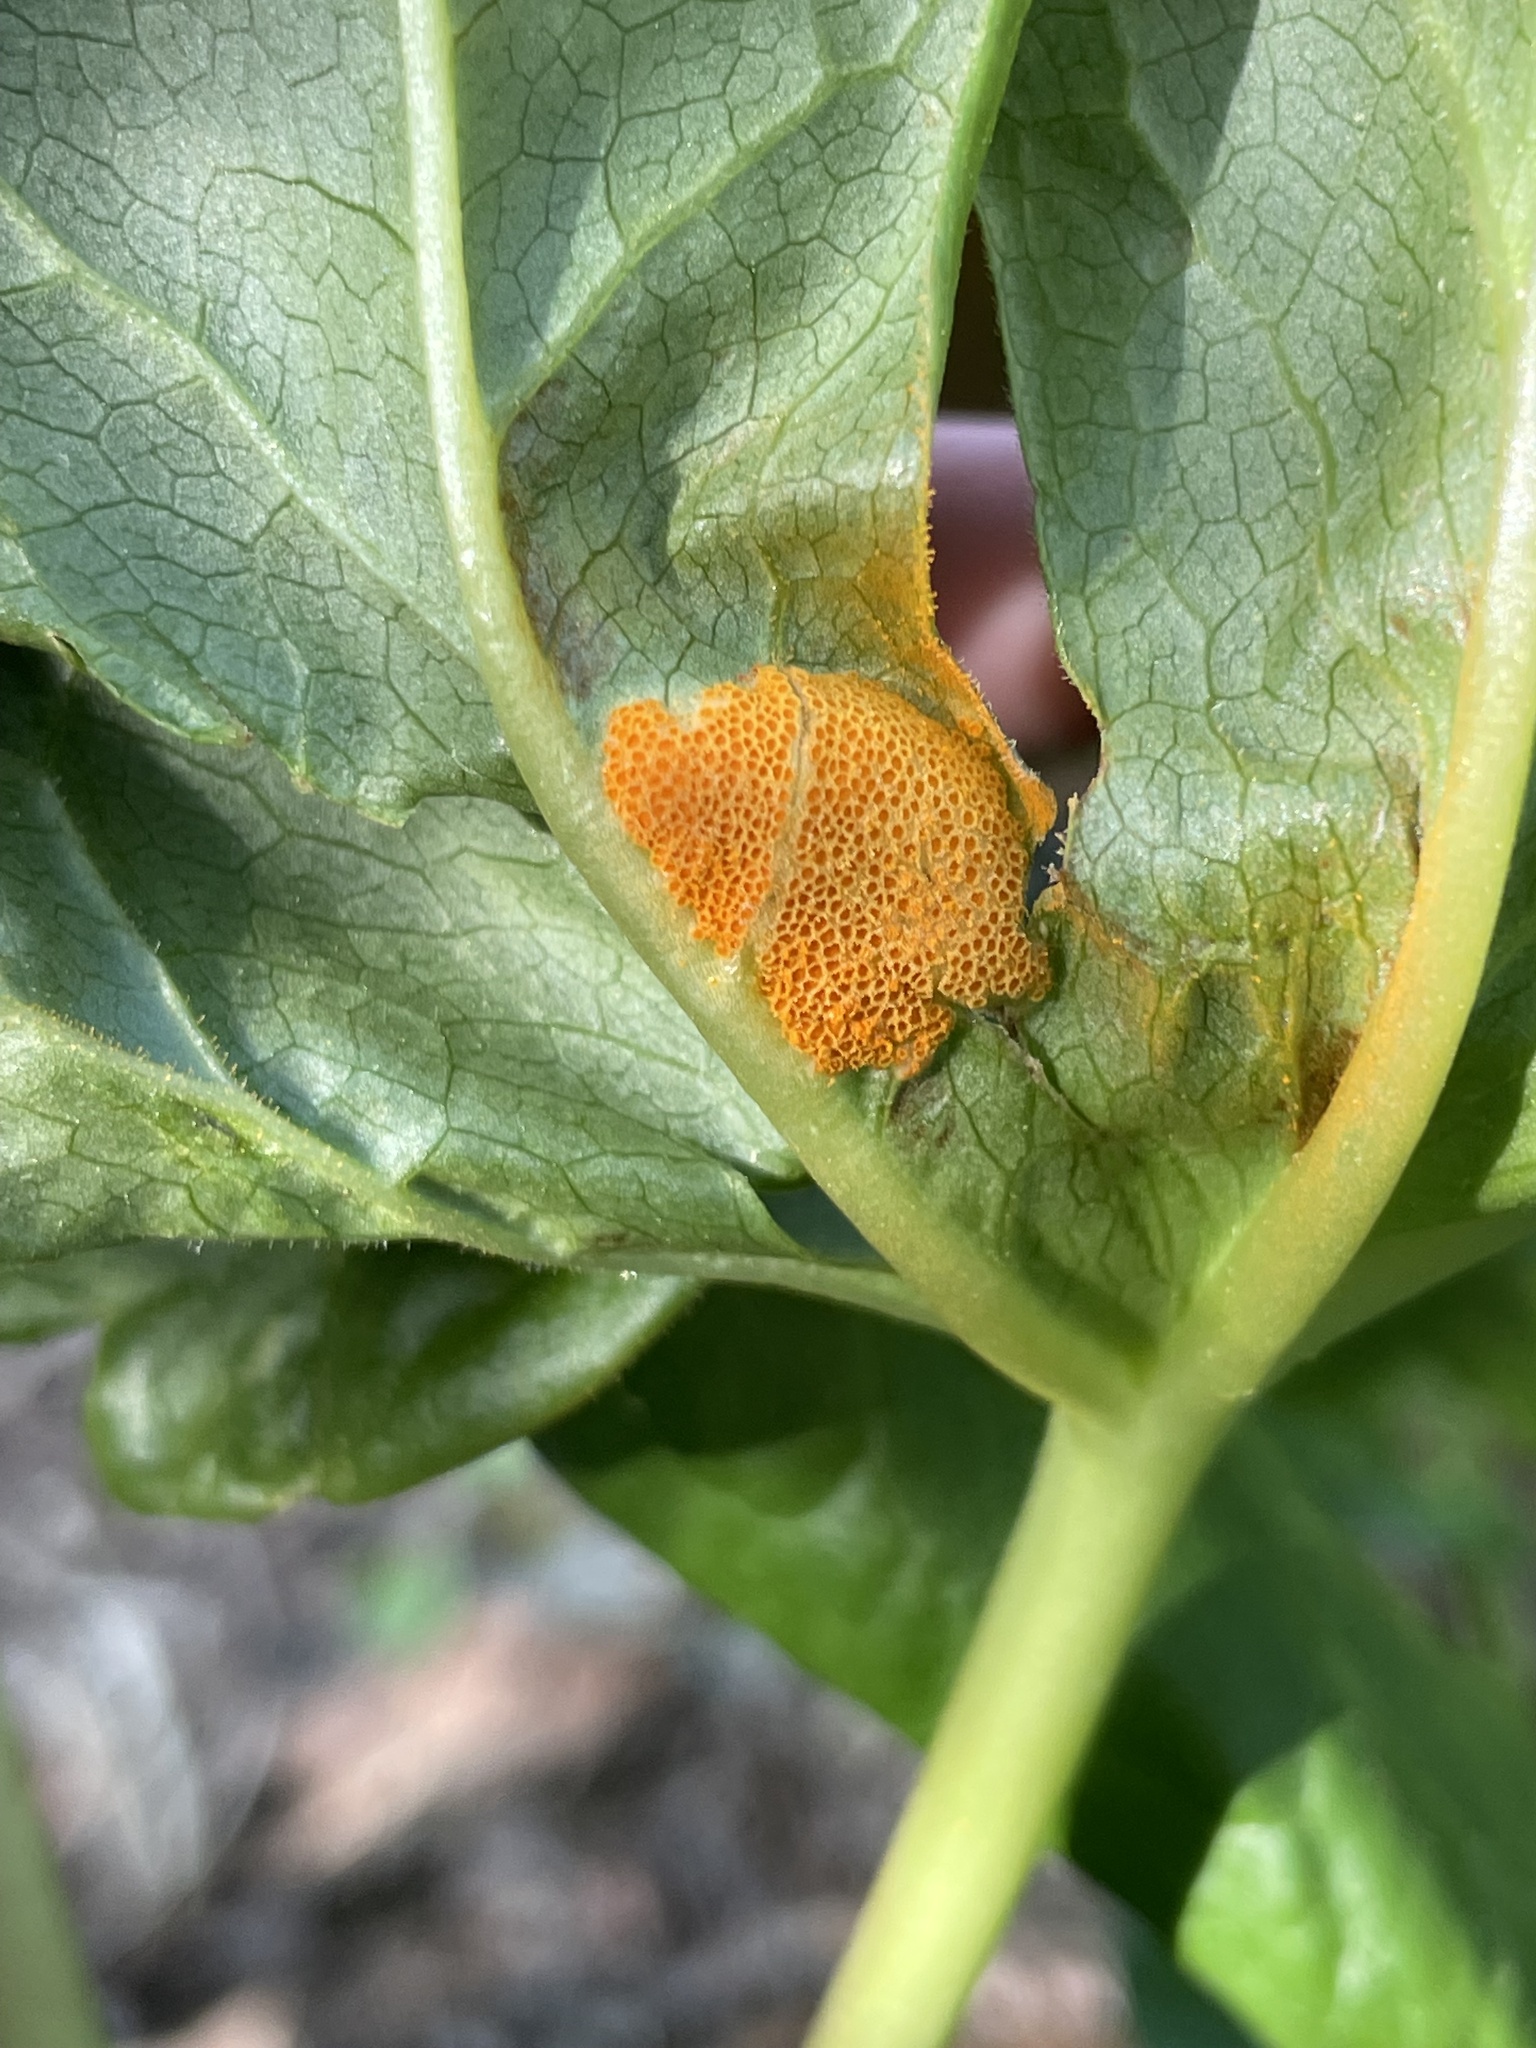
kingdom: Fungi
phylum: Basidiomycota
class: Pucciniomycetes
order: Pucciniales
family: Pucciniaceae
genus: Puccinia
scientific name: Puccinia podophylli
